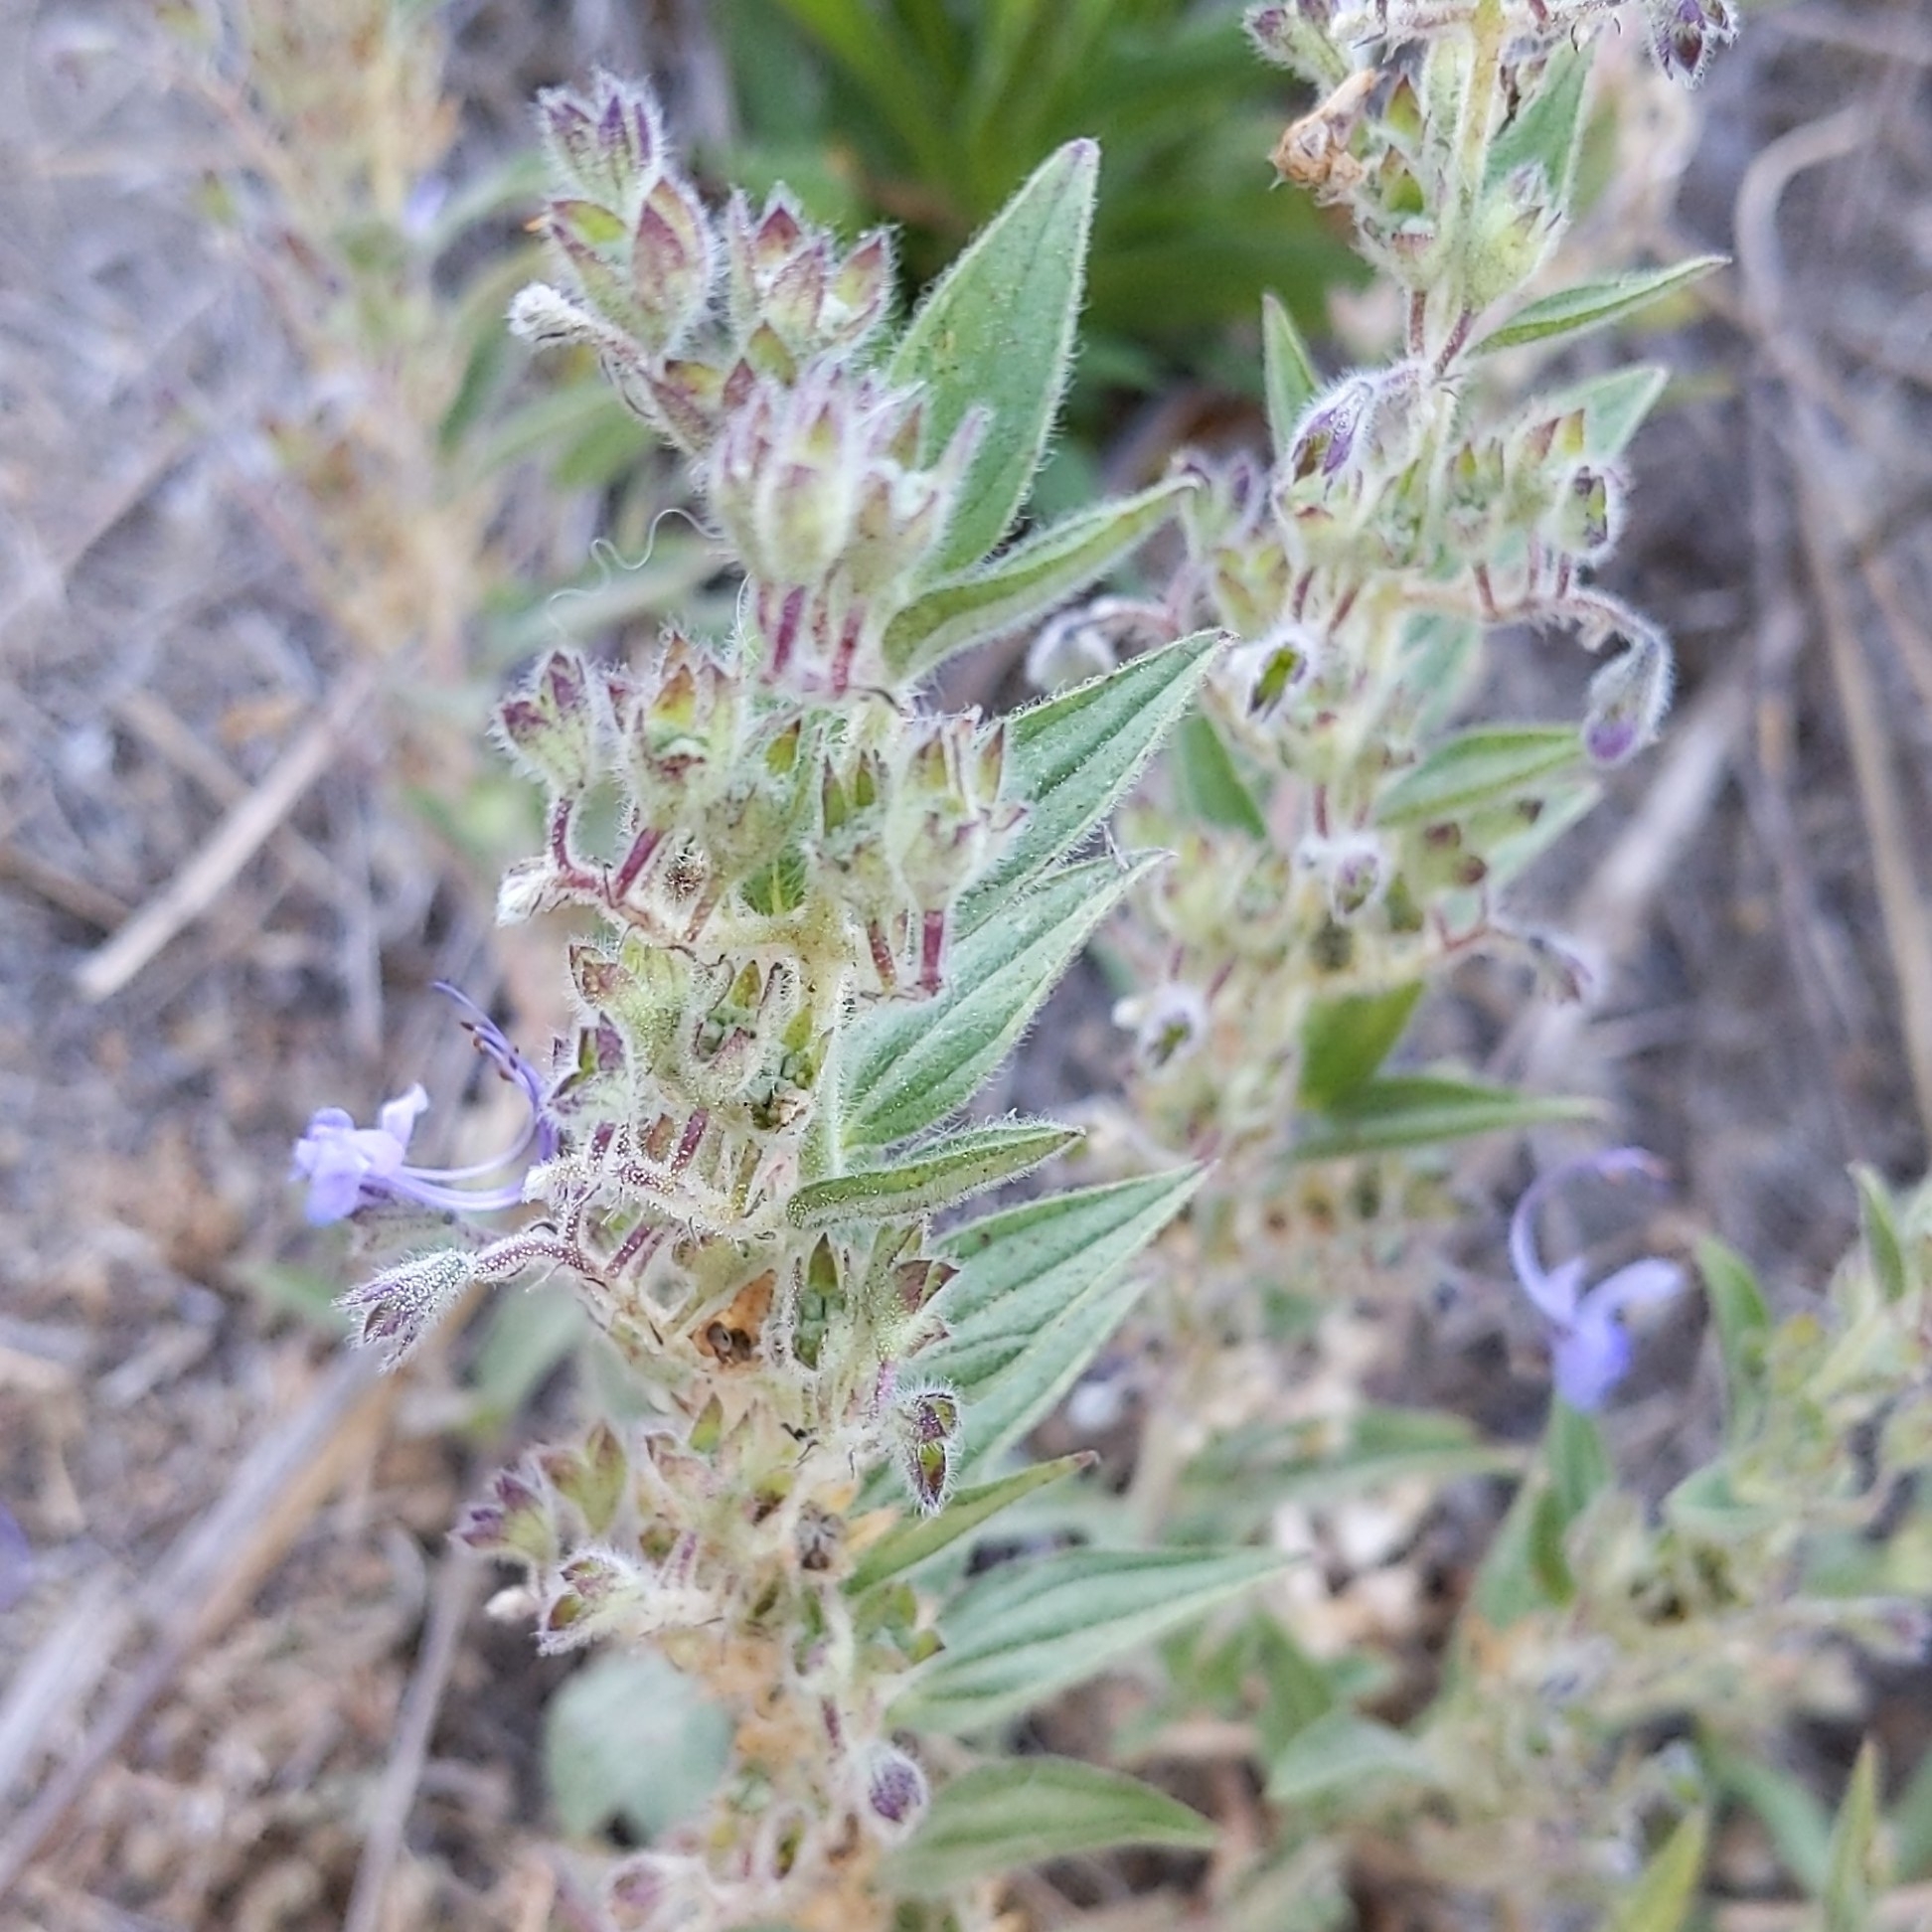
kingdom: Plantae
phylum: Tracheophyta
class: Magnoliopsida
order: Lamiales
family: Lamiaceae
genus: Trichostema
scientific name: Trichostema lanceolatum
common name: Vinegar-weed
